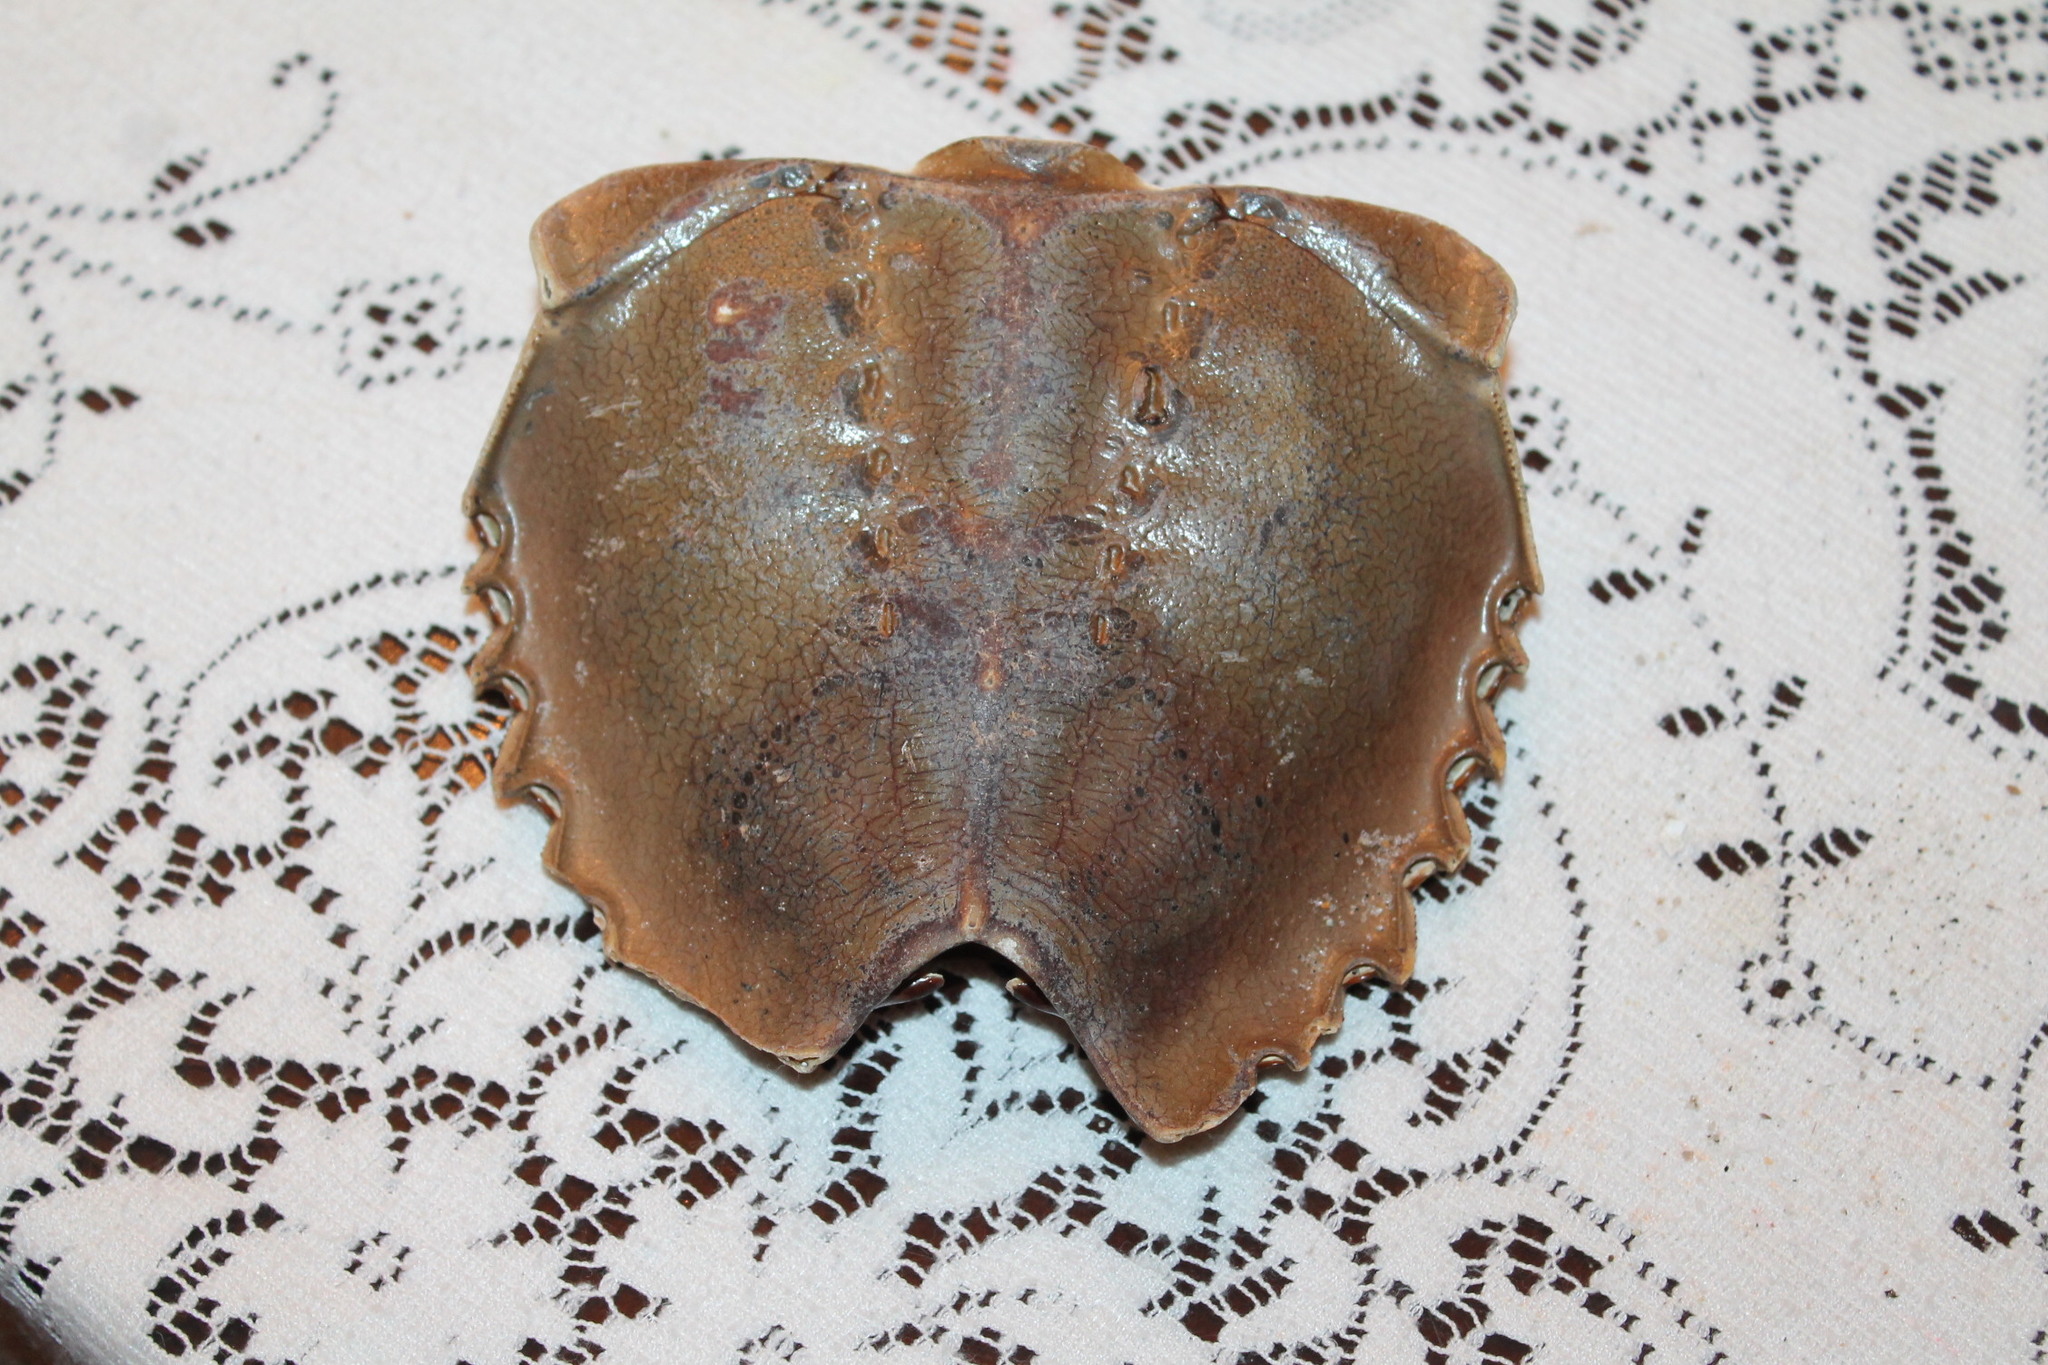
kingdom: Animalia
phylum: Arthropoda
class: Merostomata
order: Xiphosurida
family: Limulidae
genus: Limulus
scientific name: Limulus polyphemus
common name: Horseshoe crab
